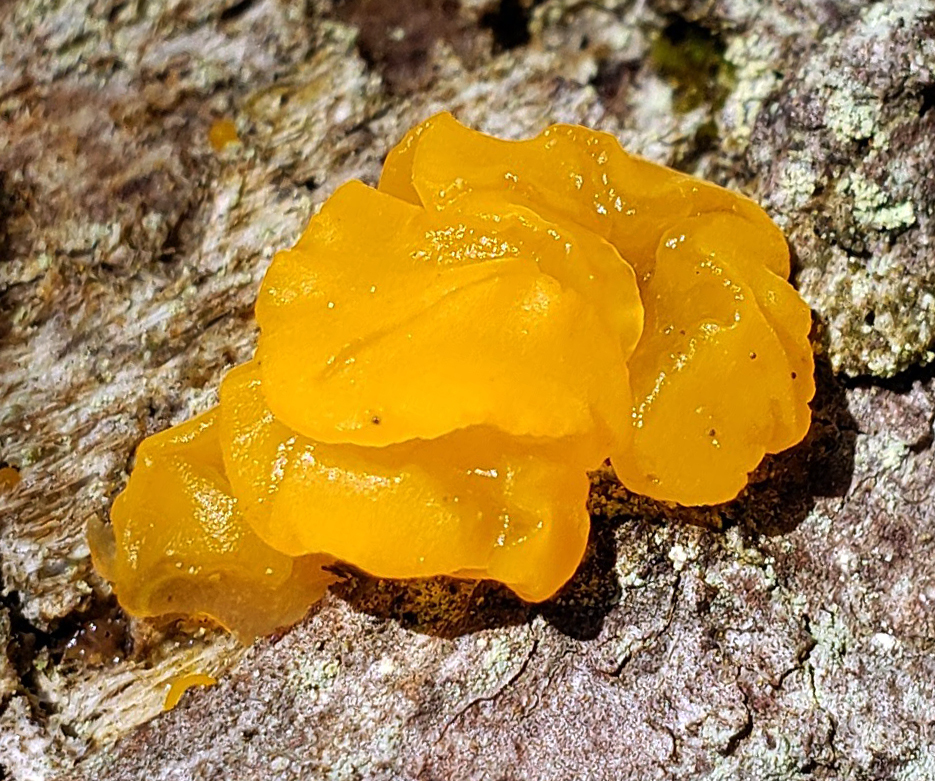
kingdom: Fungi
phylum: Basidiomycota
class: Tremellomycetes
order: Tremellales
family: Tremellaceae
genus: Tremella
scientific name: Tremella mesenterica
